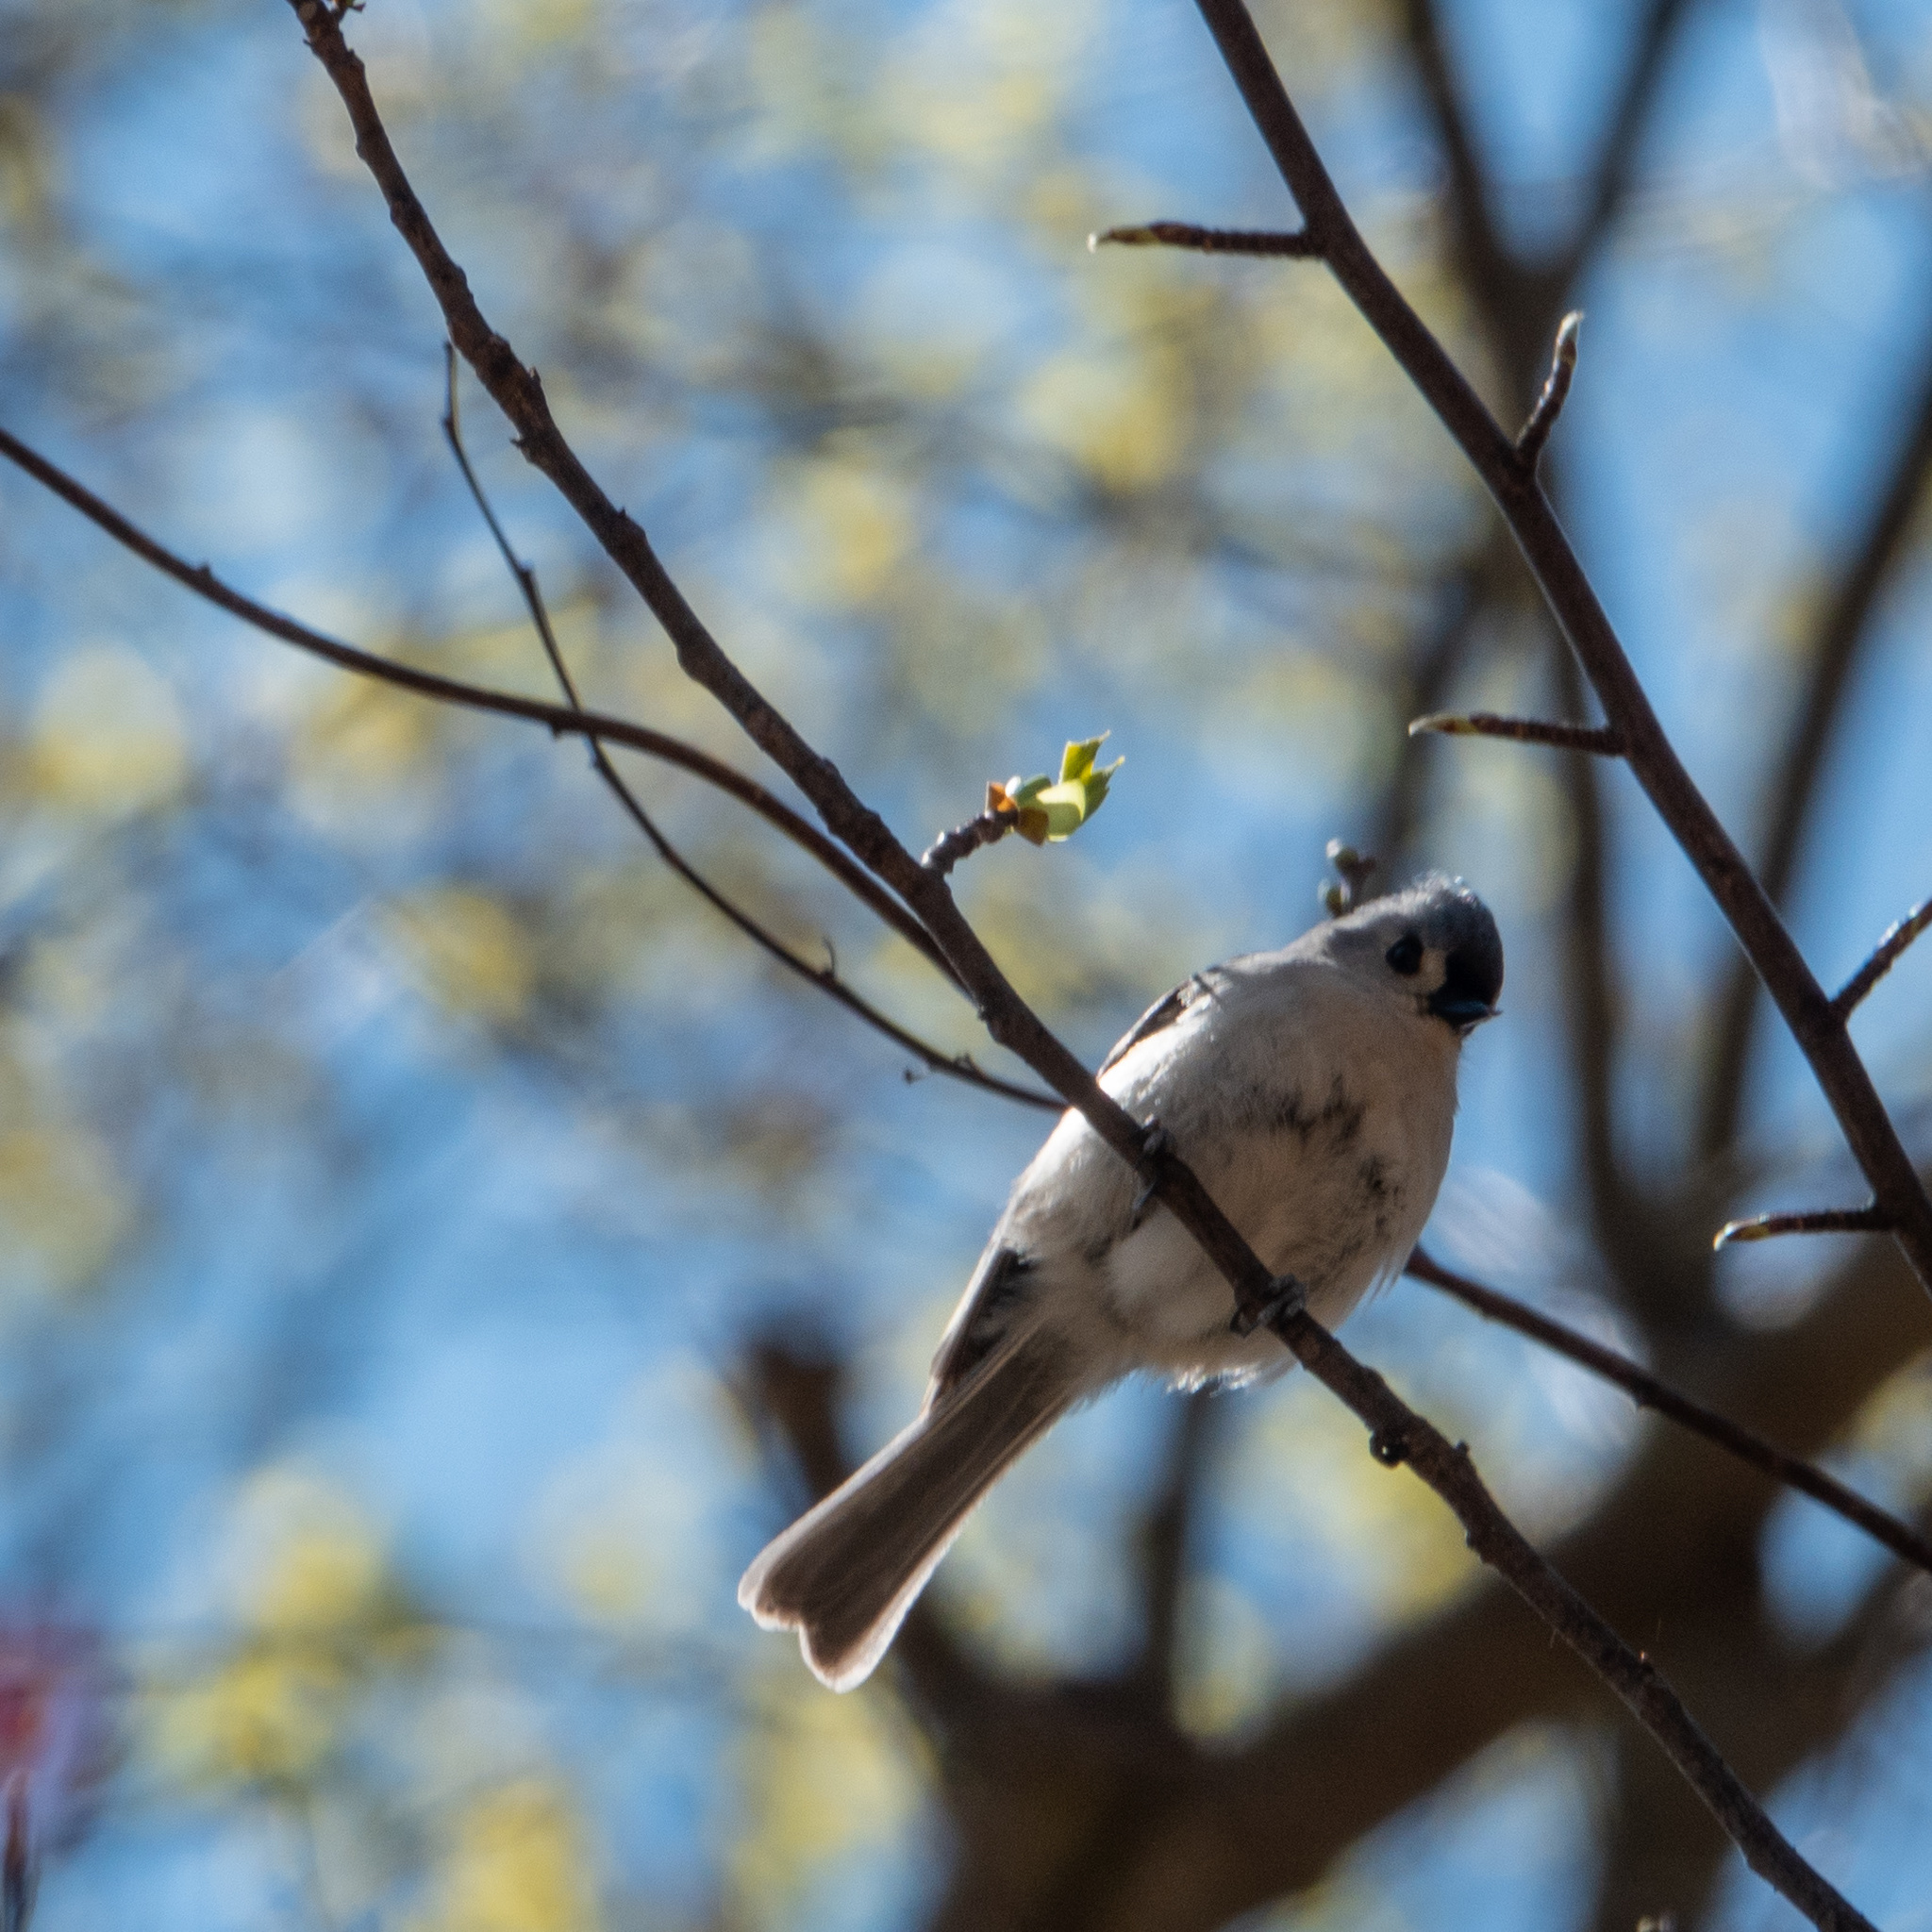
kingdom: Animalia
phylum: Chordata
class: Aves
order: Passeriformes
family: Paridae
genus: Baeolophus
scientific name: Baeolophus bicolor
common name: Tufted titmouse
